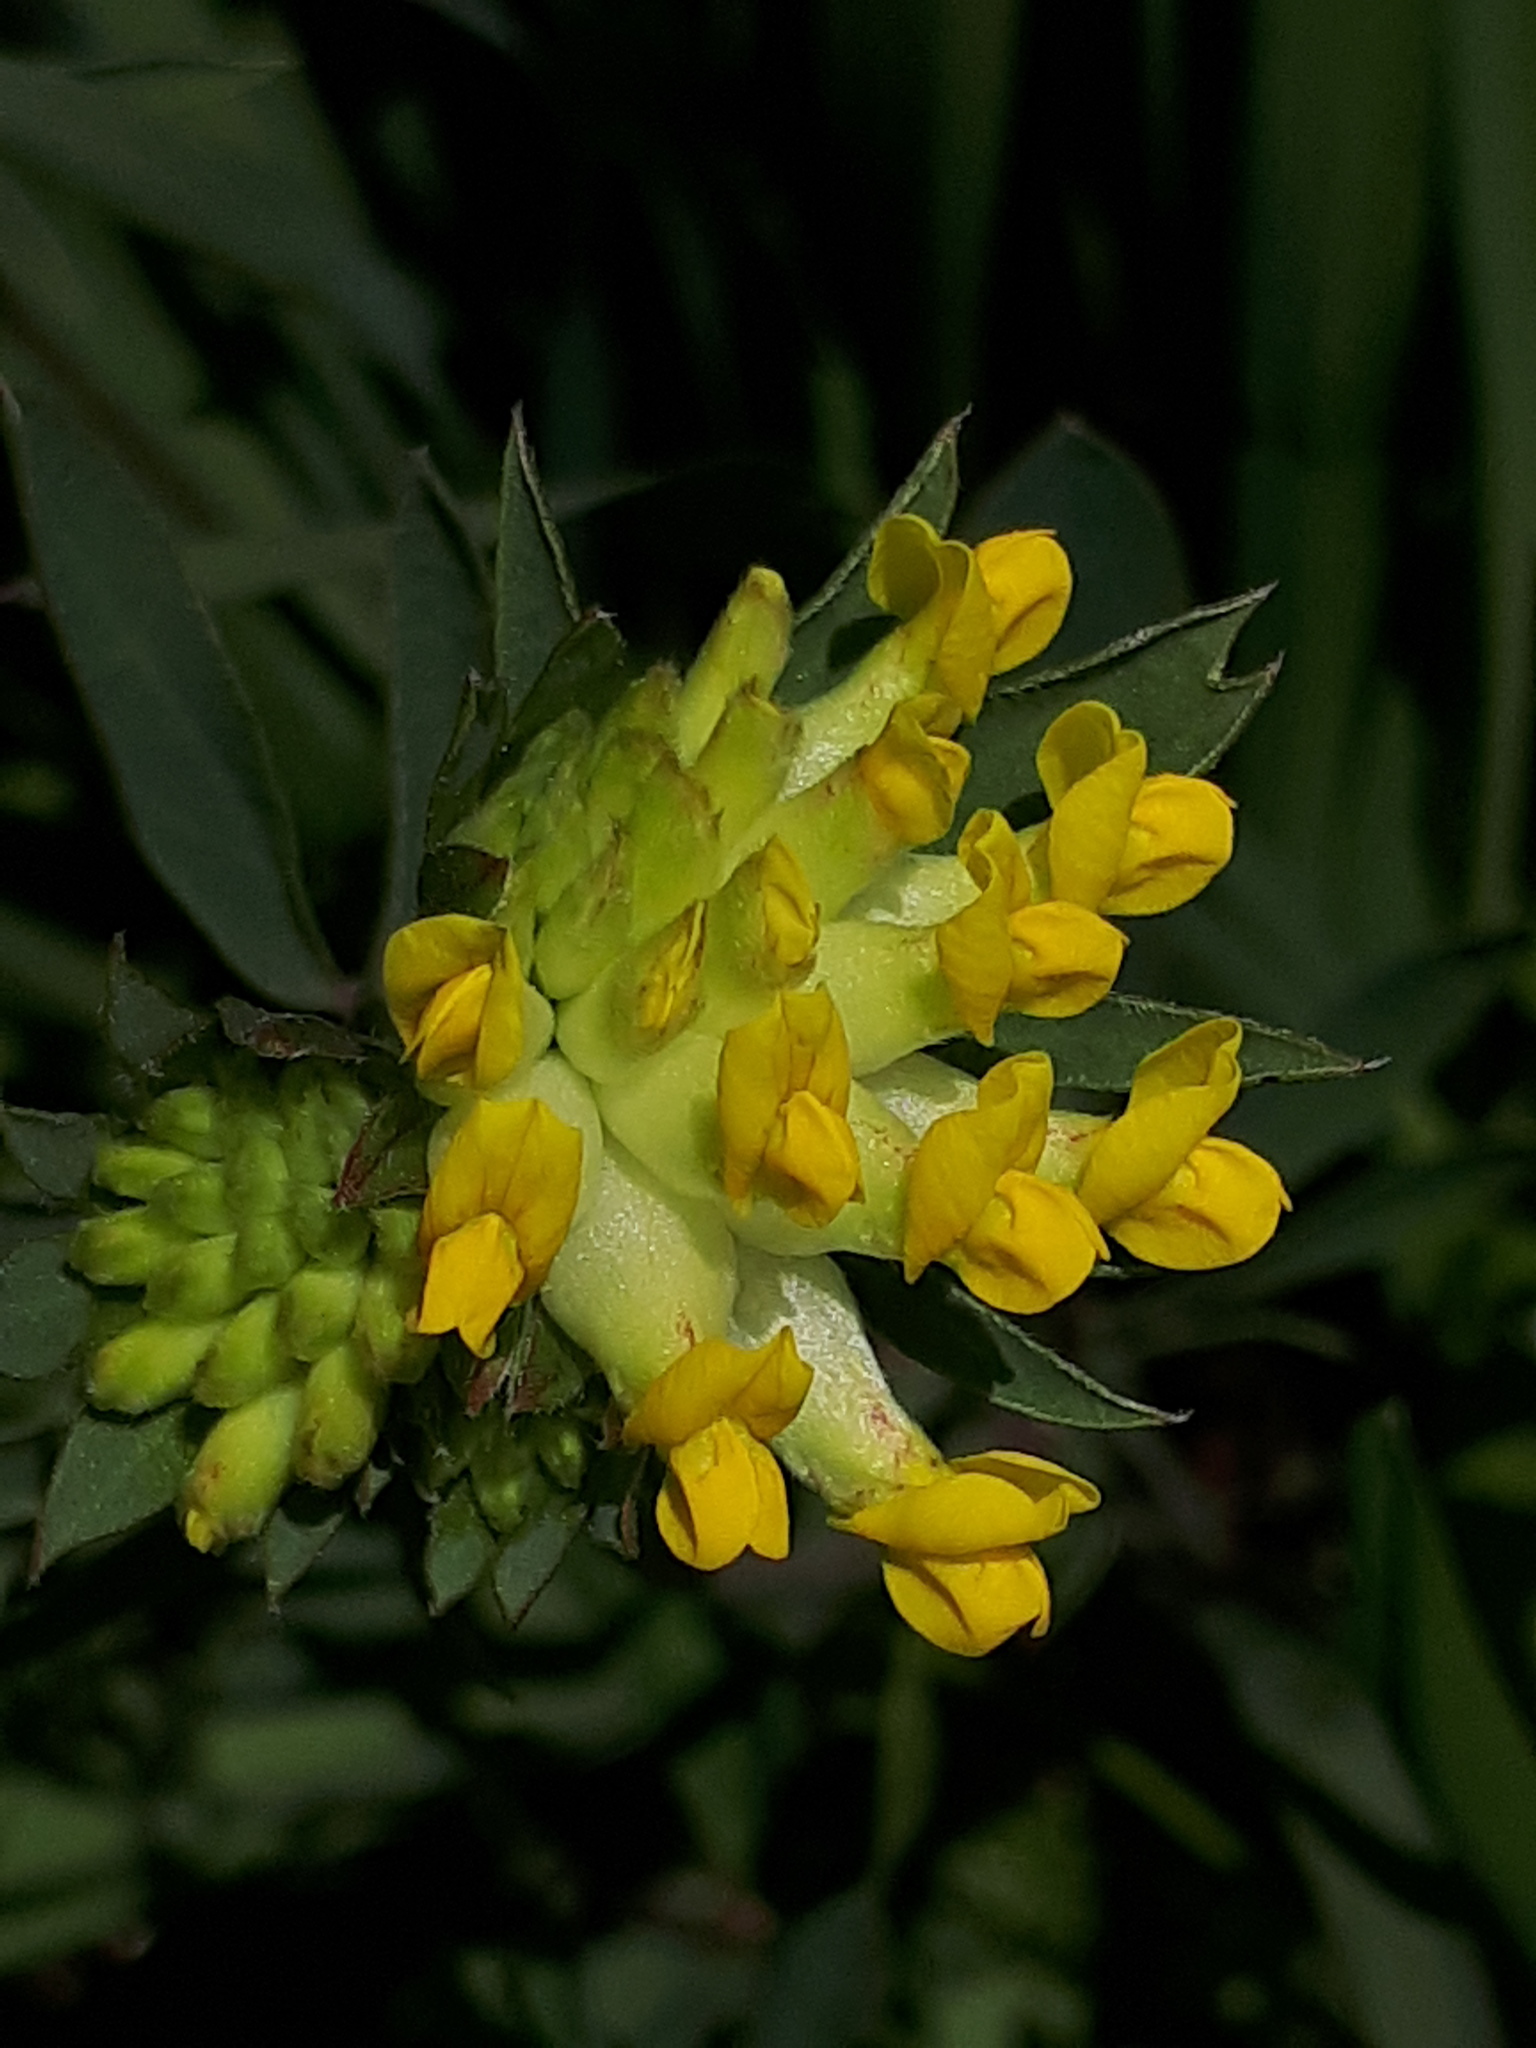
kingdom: Plantae
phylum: Tracheophyta
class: Magnoliopsida
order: Fabales
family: Fabaceae
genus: Anthyllis
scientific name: Anthyllis vulneraria
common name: Kidney vetch
